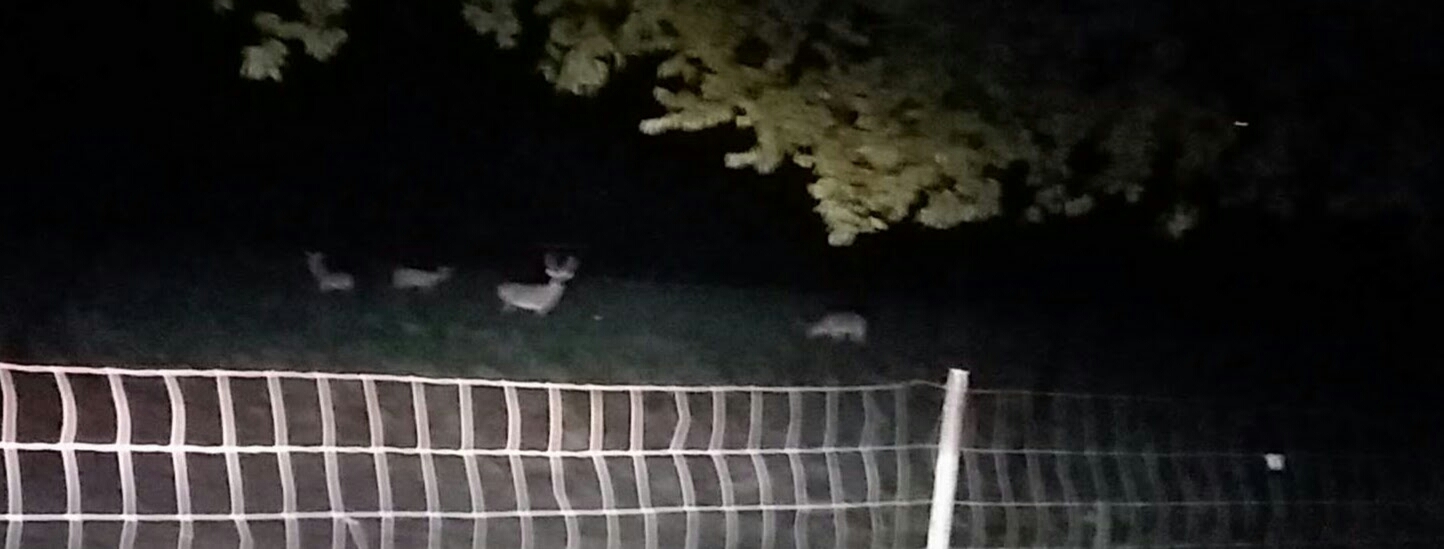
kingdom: Animalia
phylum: Chordata
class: Mammalia
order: Artiodactyla
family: Cervidae
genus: Odocoileus
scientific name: Odocoileus virginianus
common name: White-tailed deer
